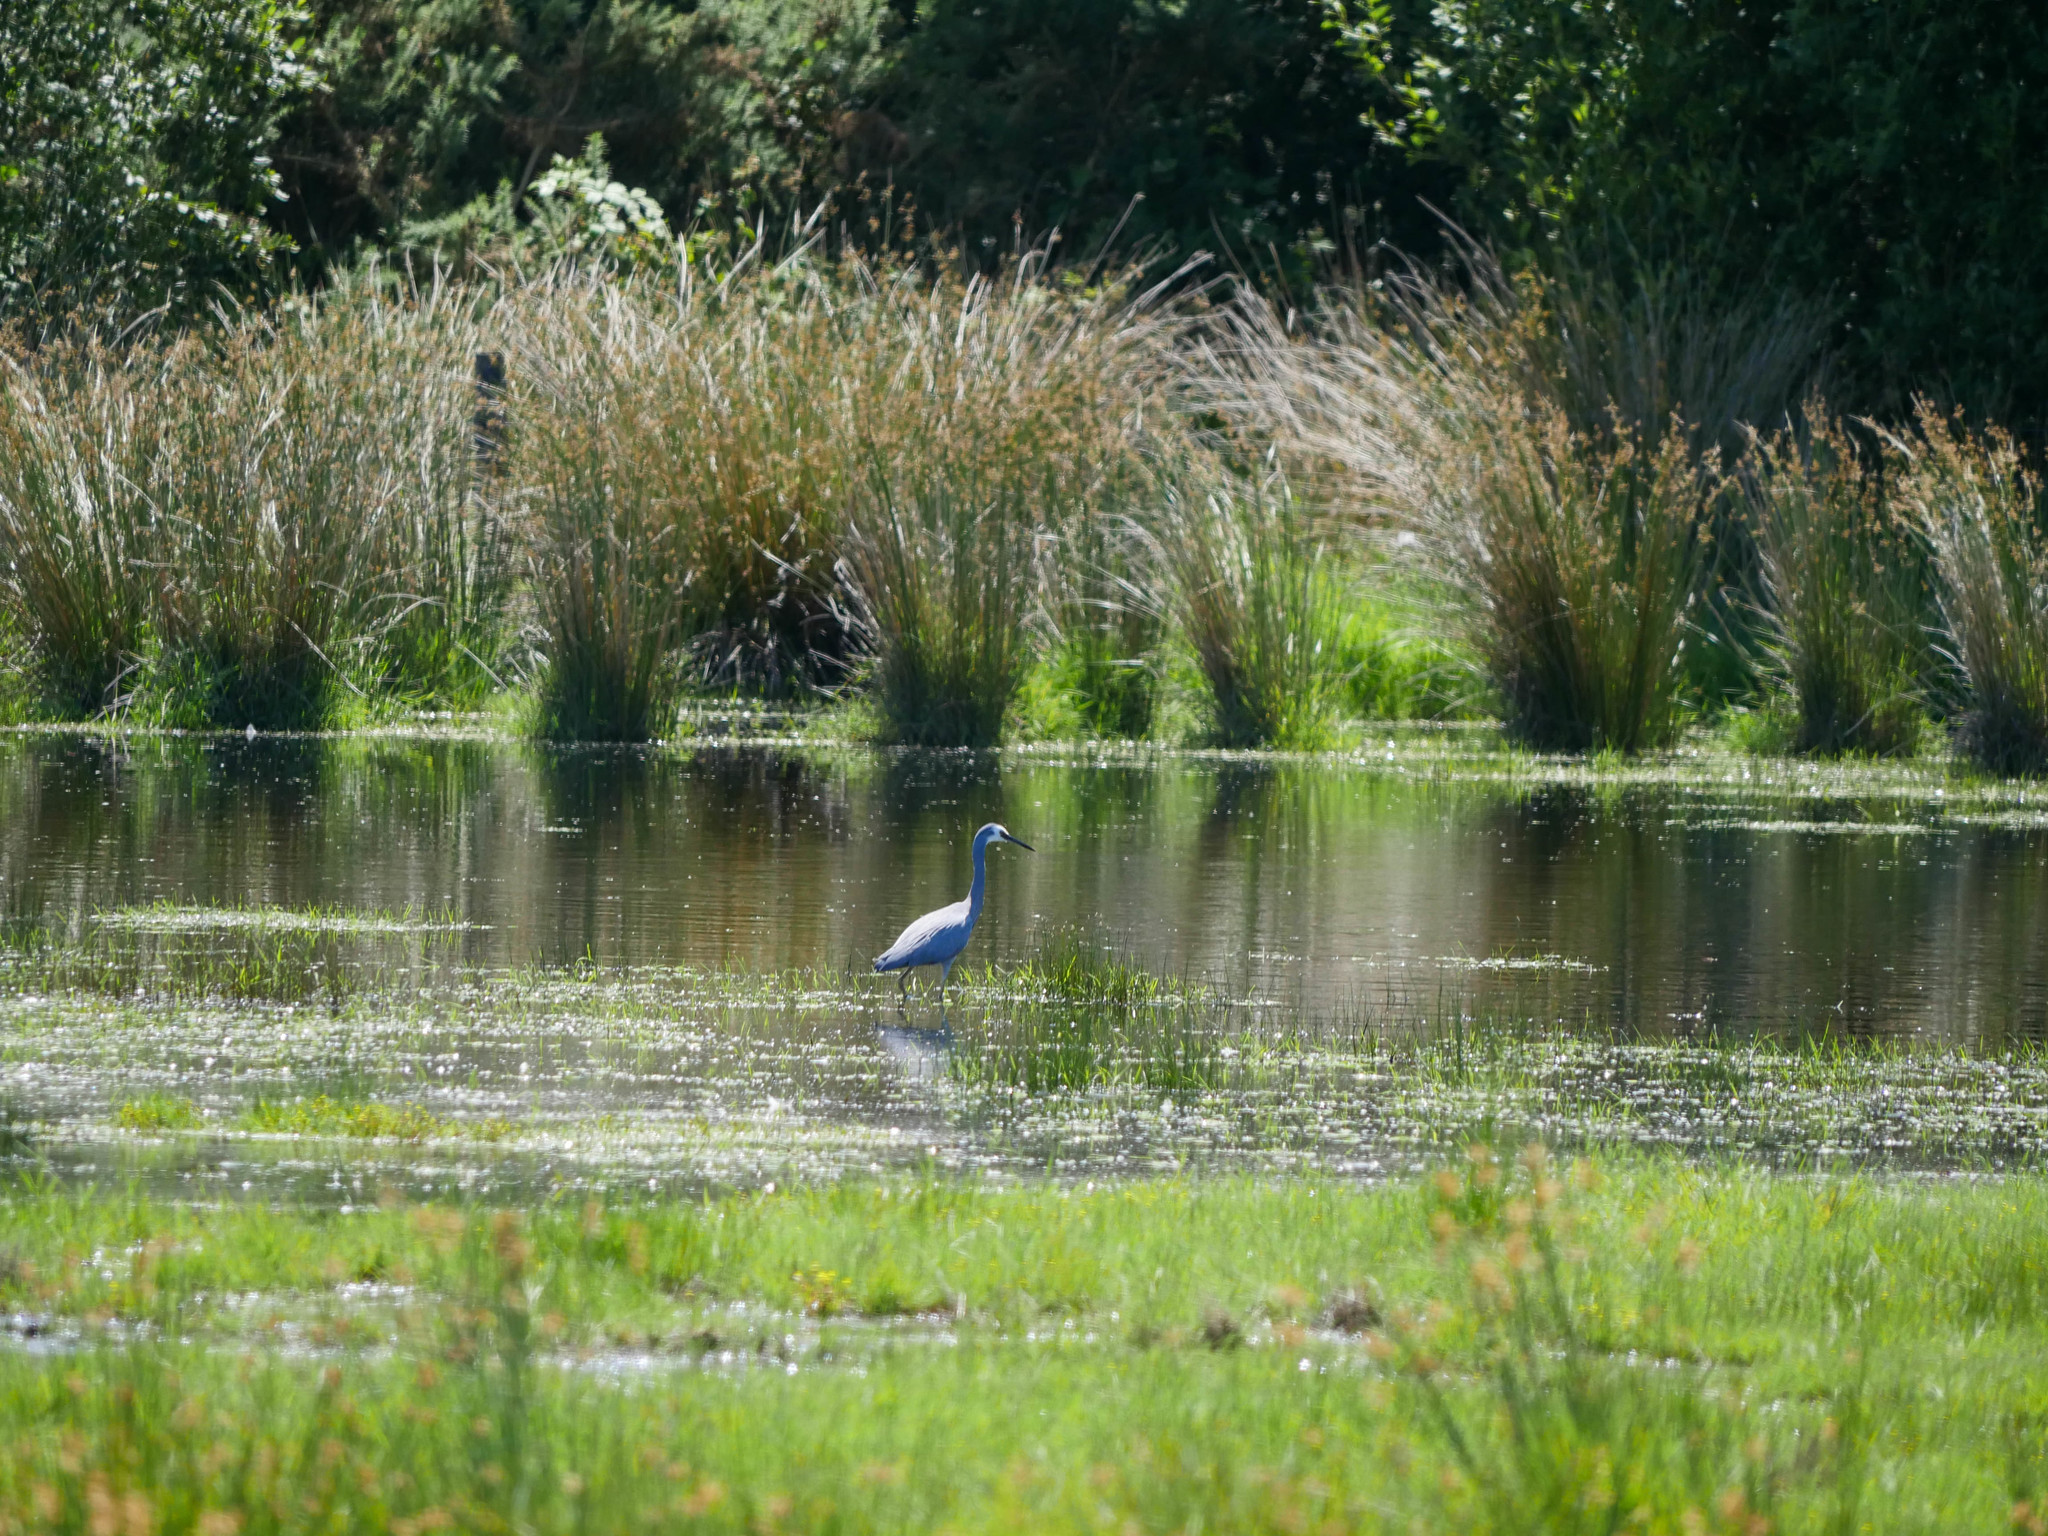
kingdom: Animalia
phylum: Chordata
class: Aves
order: Pelecaniformes
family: Ardeidae
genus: Egretta
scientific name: Egretta novaehollandiae
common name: White-faced heron
